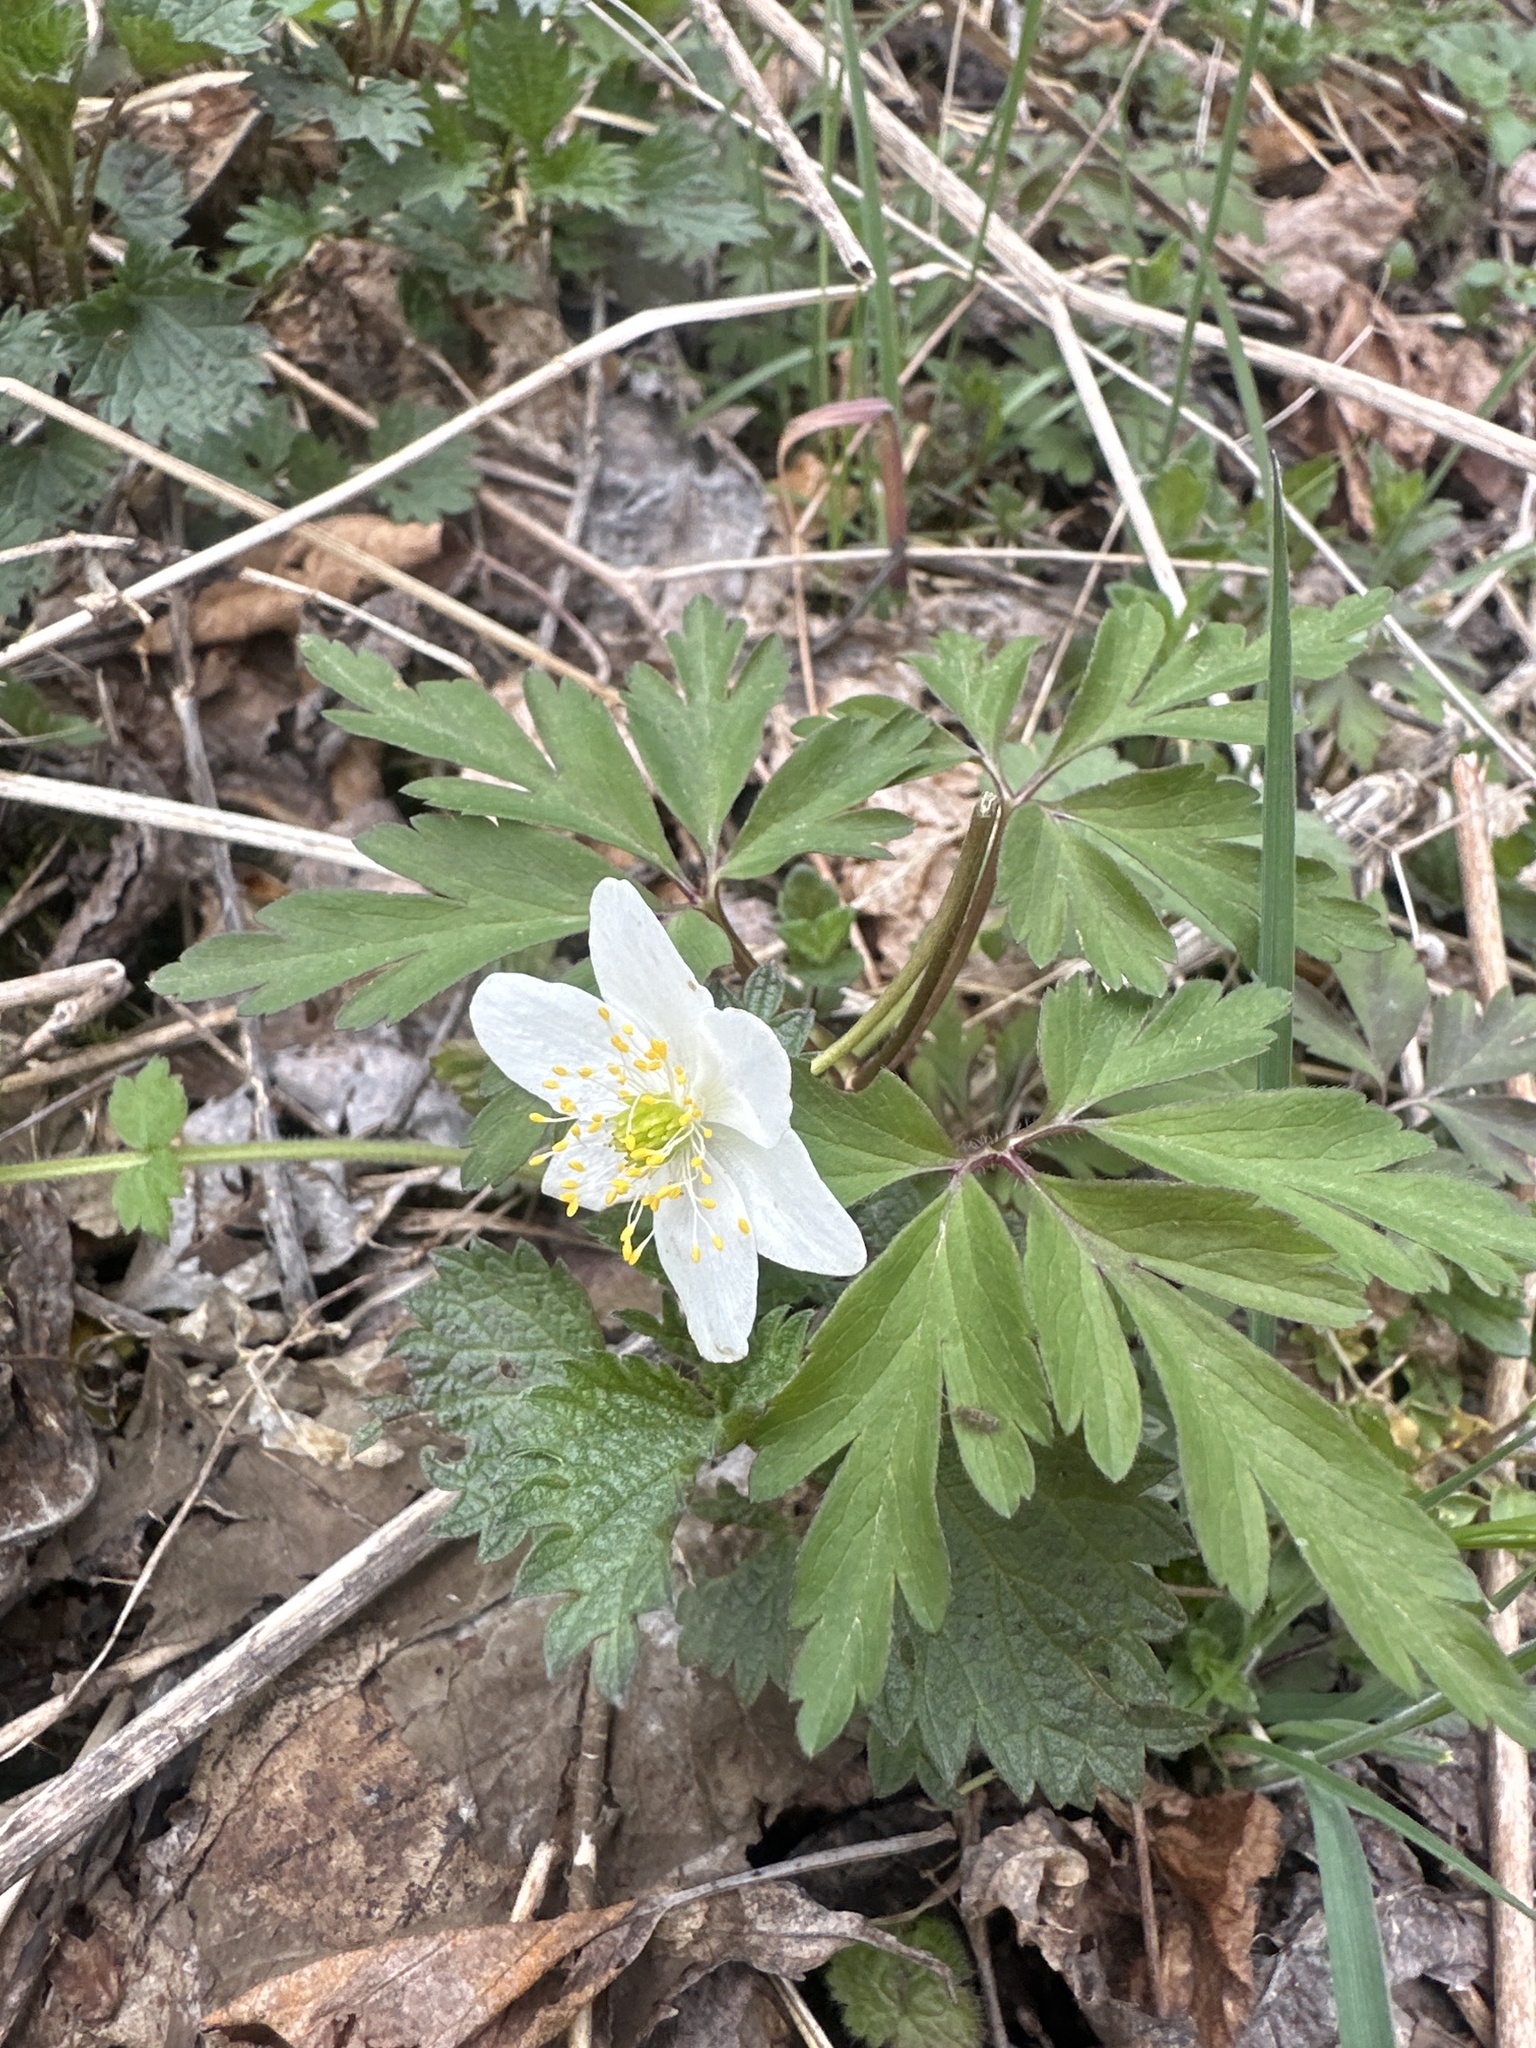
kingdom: Plantae
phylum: Tracheophyta
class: Magnoliopsida
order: Ranunculales
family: Ranunculaceae
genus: Anemone
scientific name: Anemone nemorosa
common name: Wood anemone
